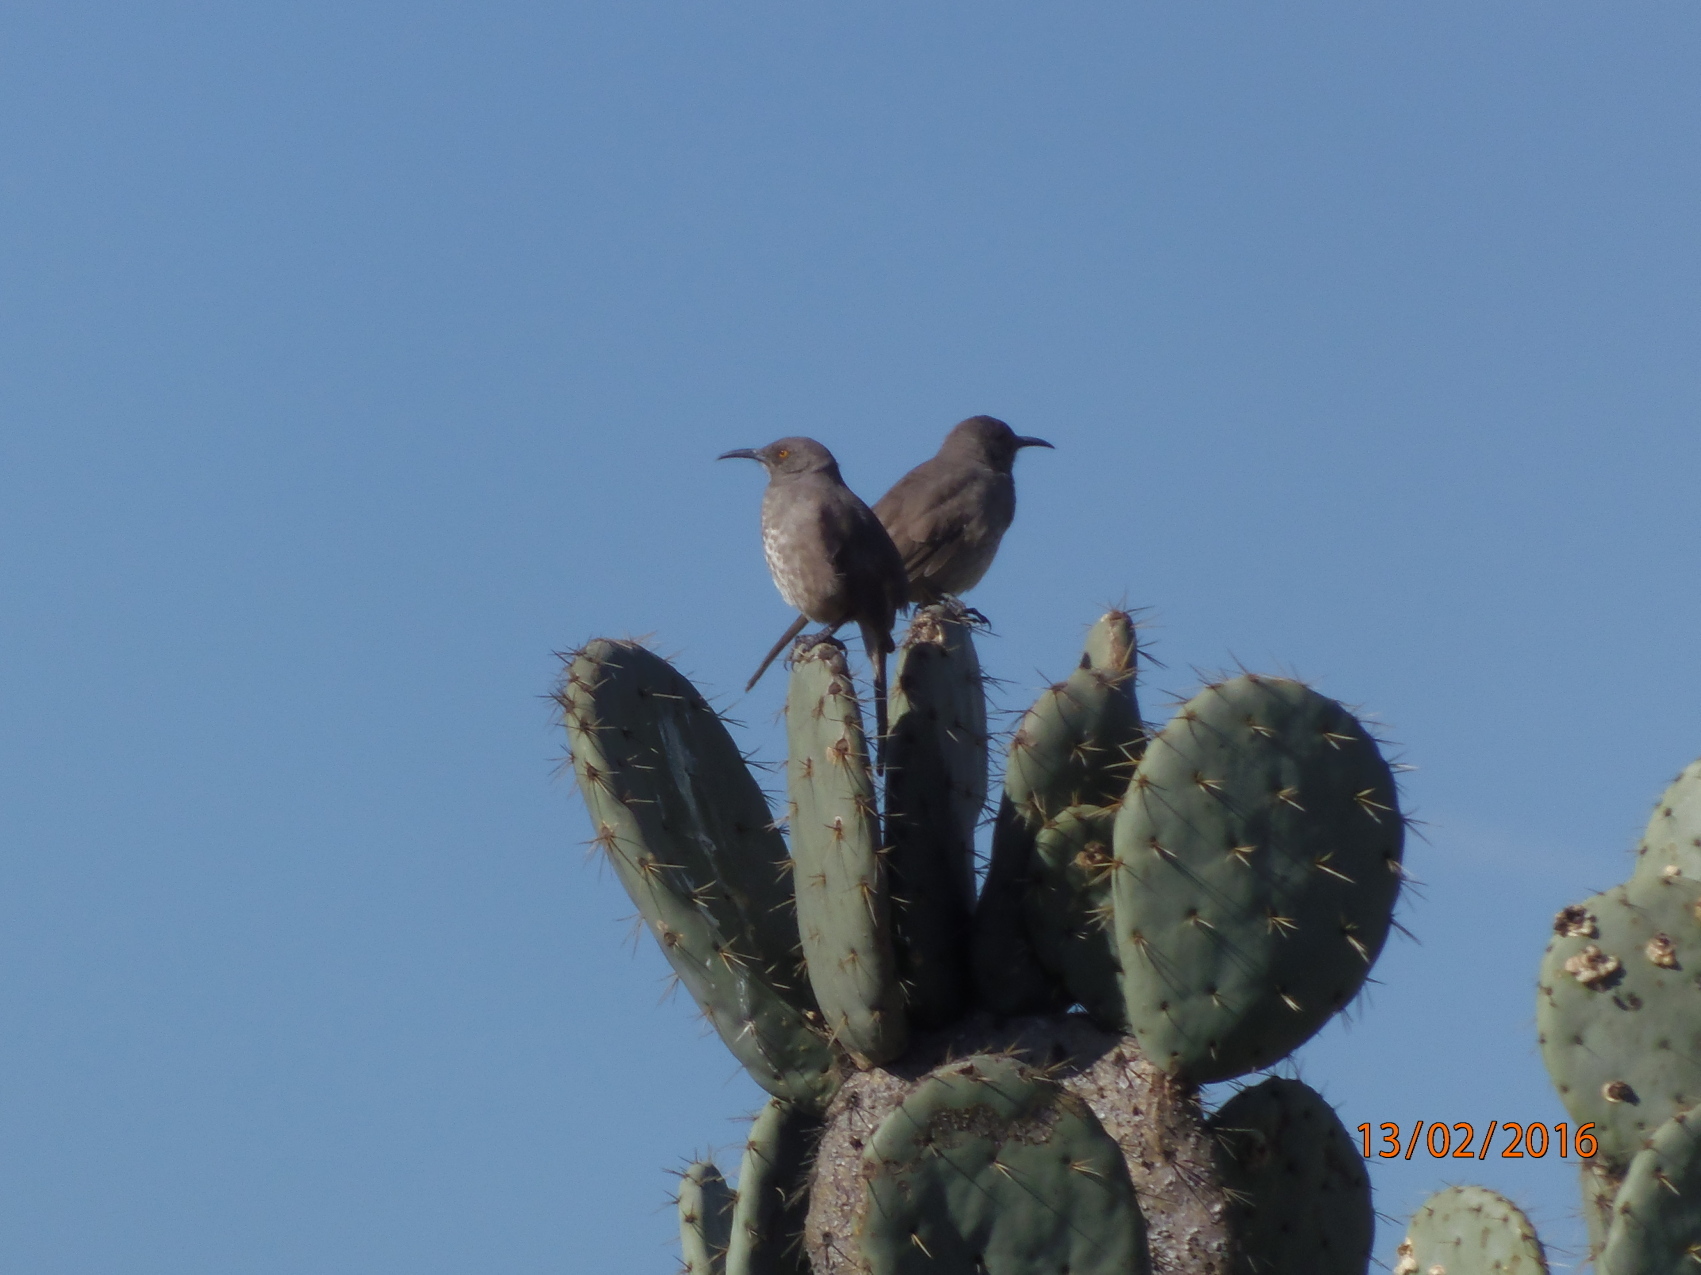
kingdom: Animalia
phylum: Chordata
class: Aves
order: Passeriformes
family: Mimidae
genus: Toxostoma
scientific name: Toxostoma curvirostre
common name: Curve-billed thrasher
